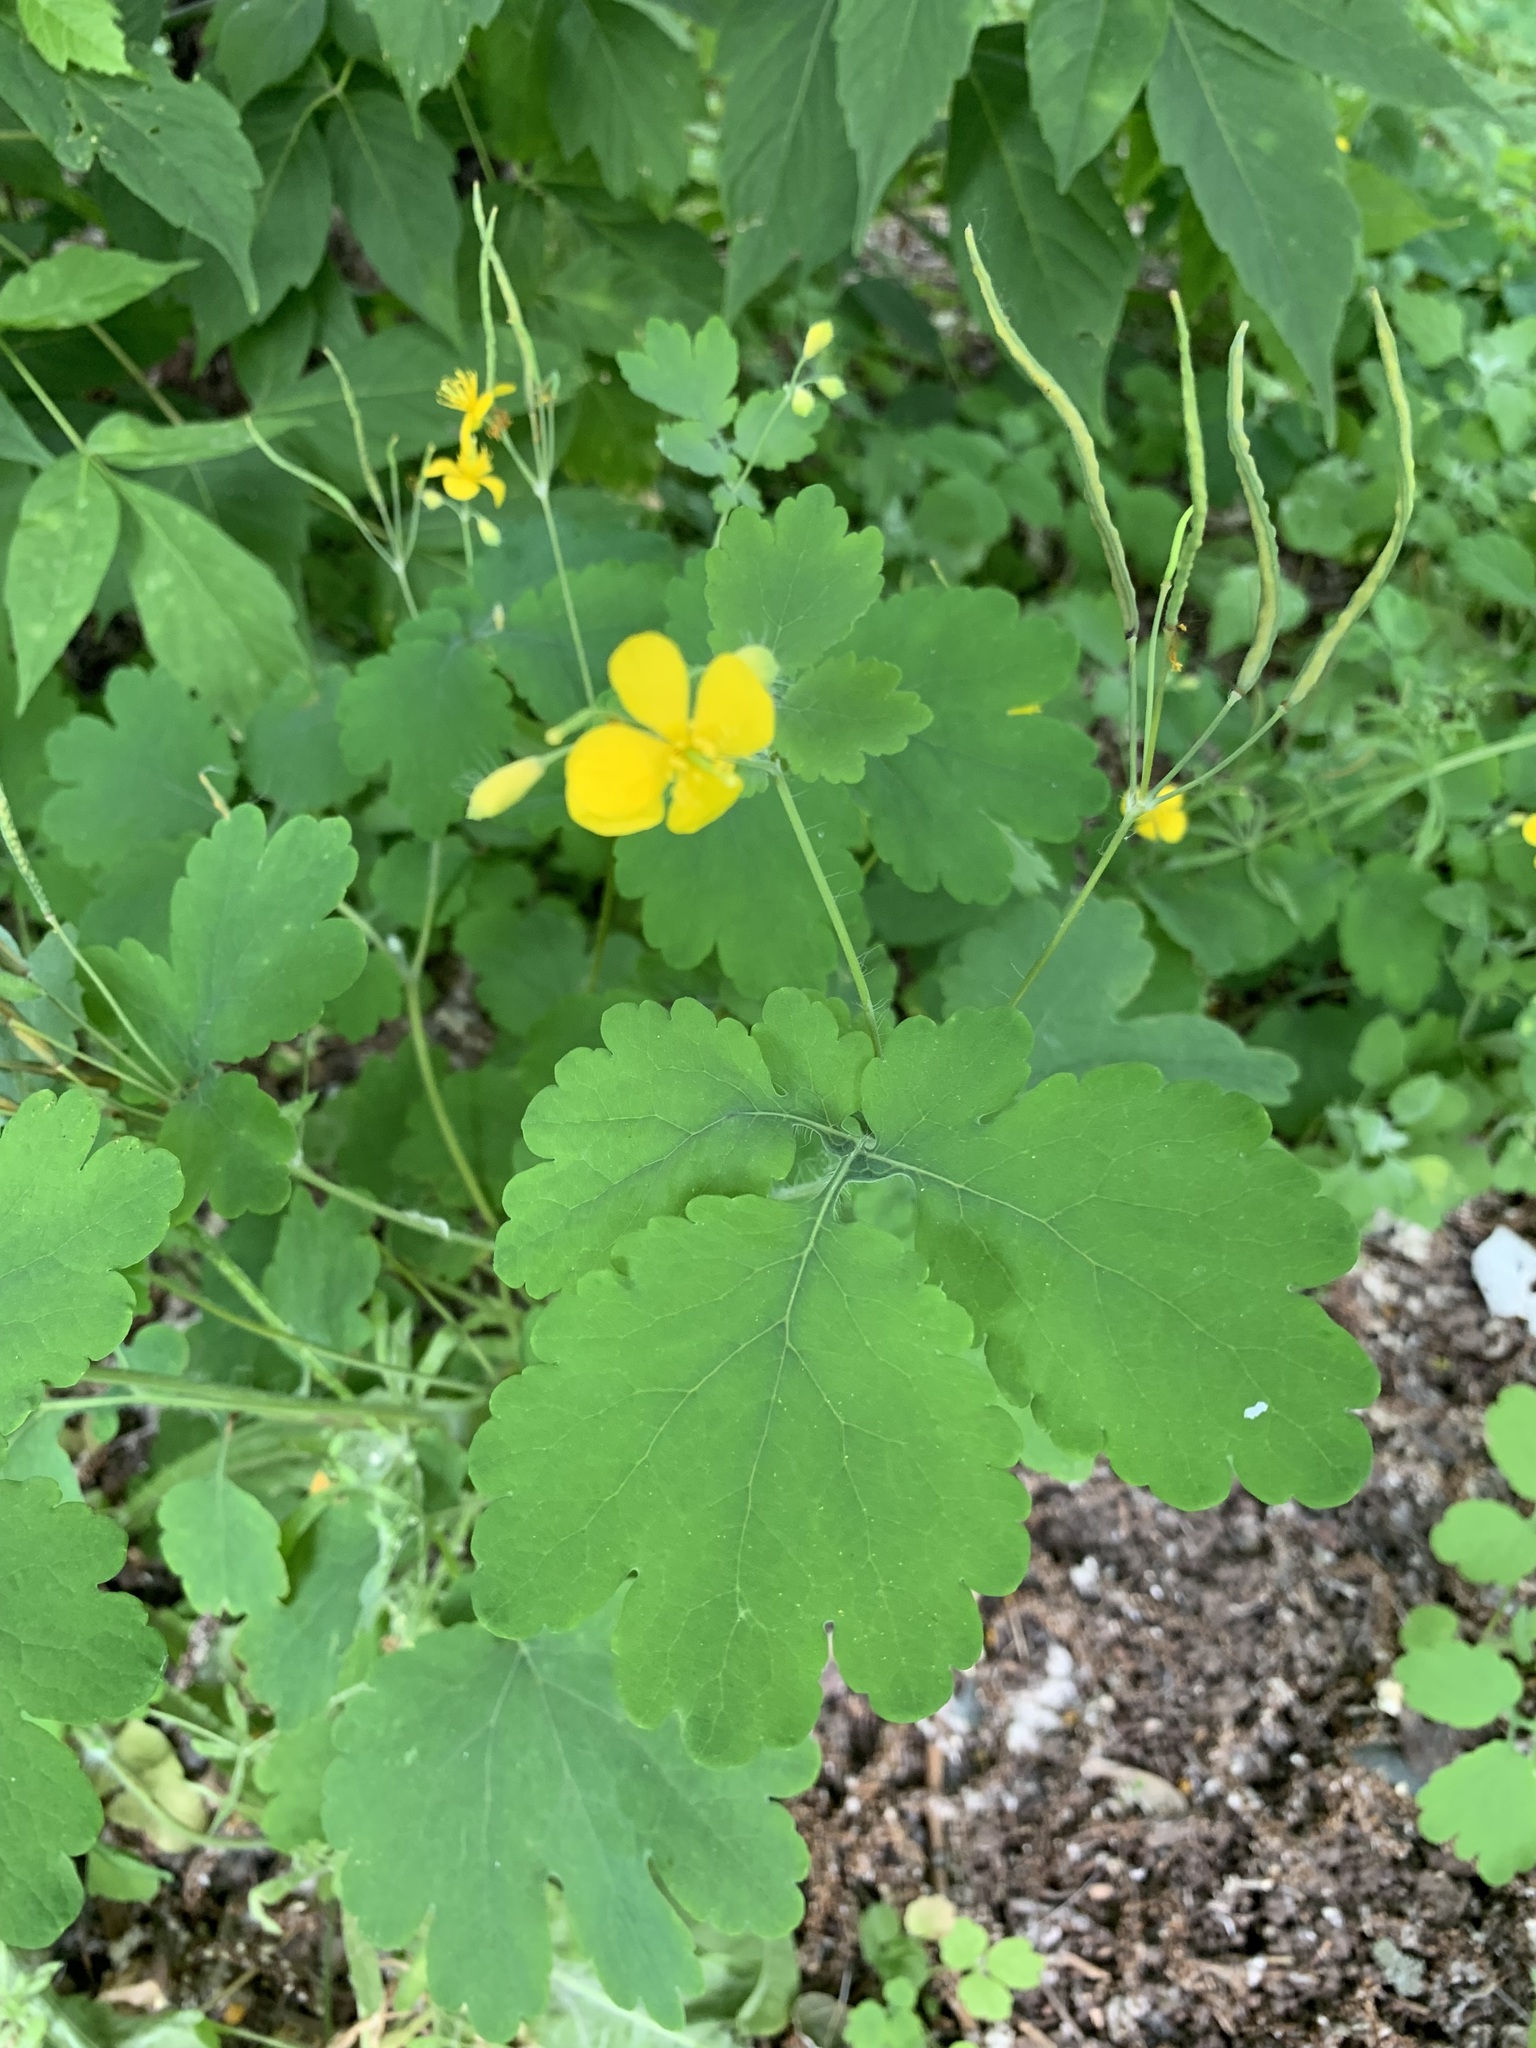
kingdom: Plantae
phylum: Tracheophyta
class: Magnoliopsida
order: Ranunculales
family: Papaveraceae
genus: Chelidonium
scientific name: Chelidonium majus
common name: Greater celandine
